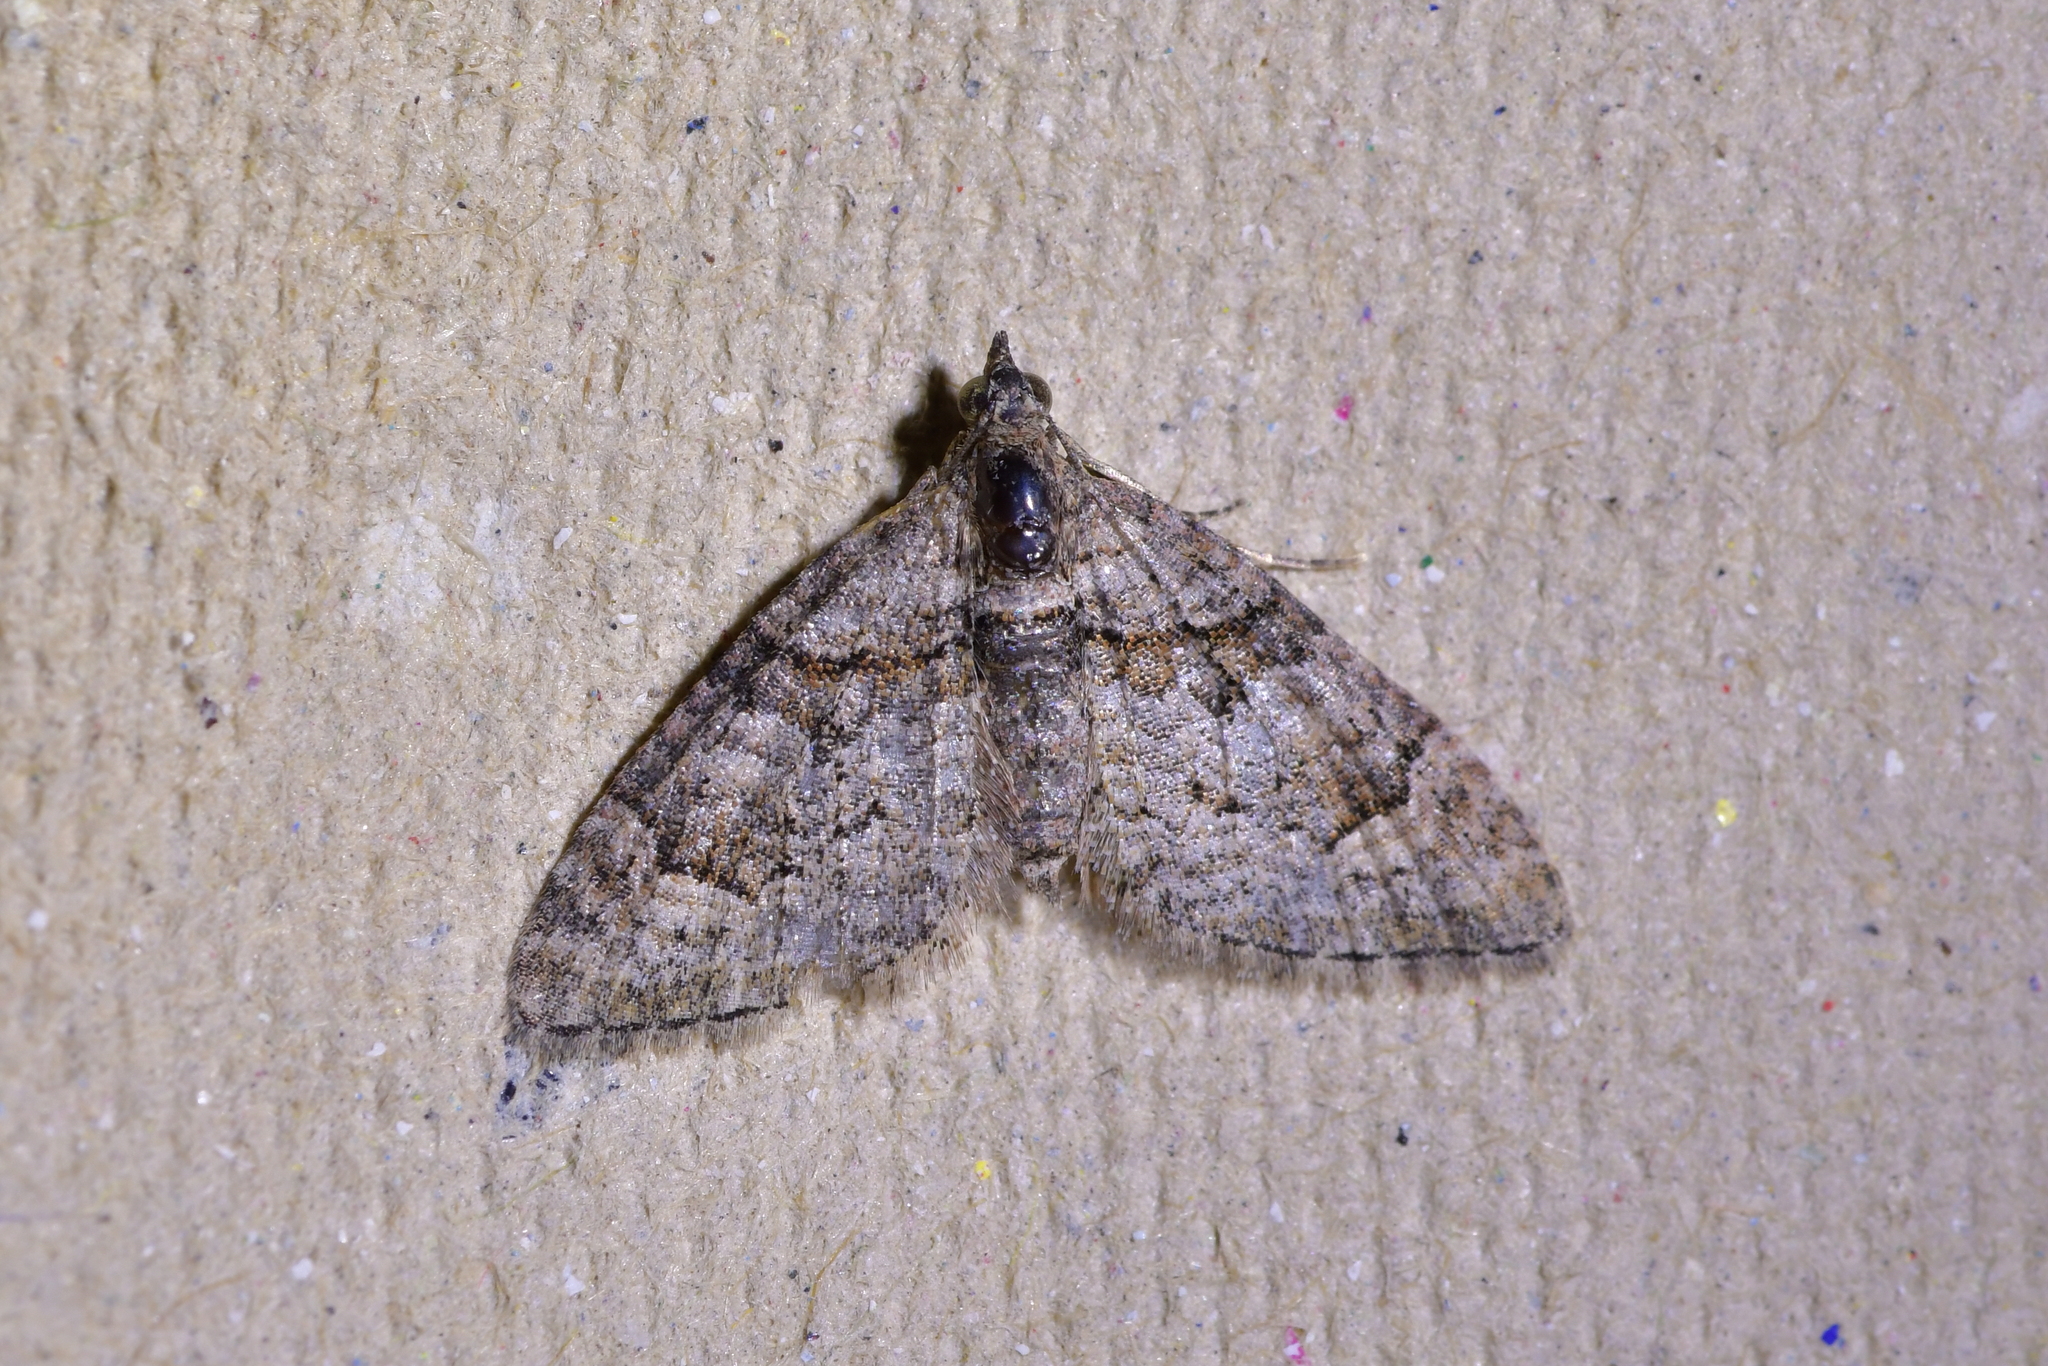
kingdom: Animalia
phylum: Arthropoda
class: Insecta
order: Lepidoptera
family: Geometridae
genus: Phrissogonus
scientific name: Phrissogonus laticostata
